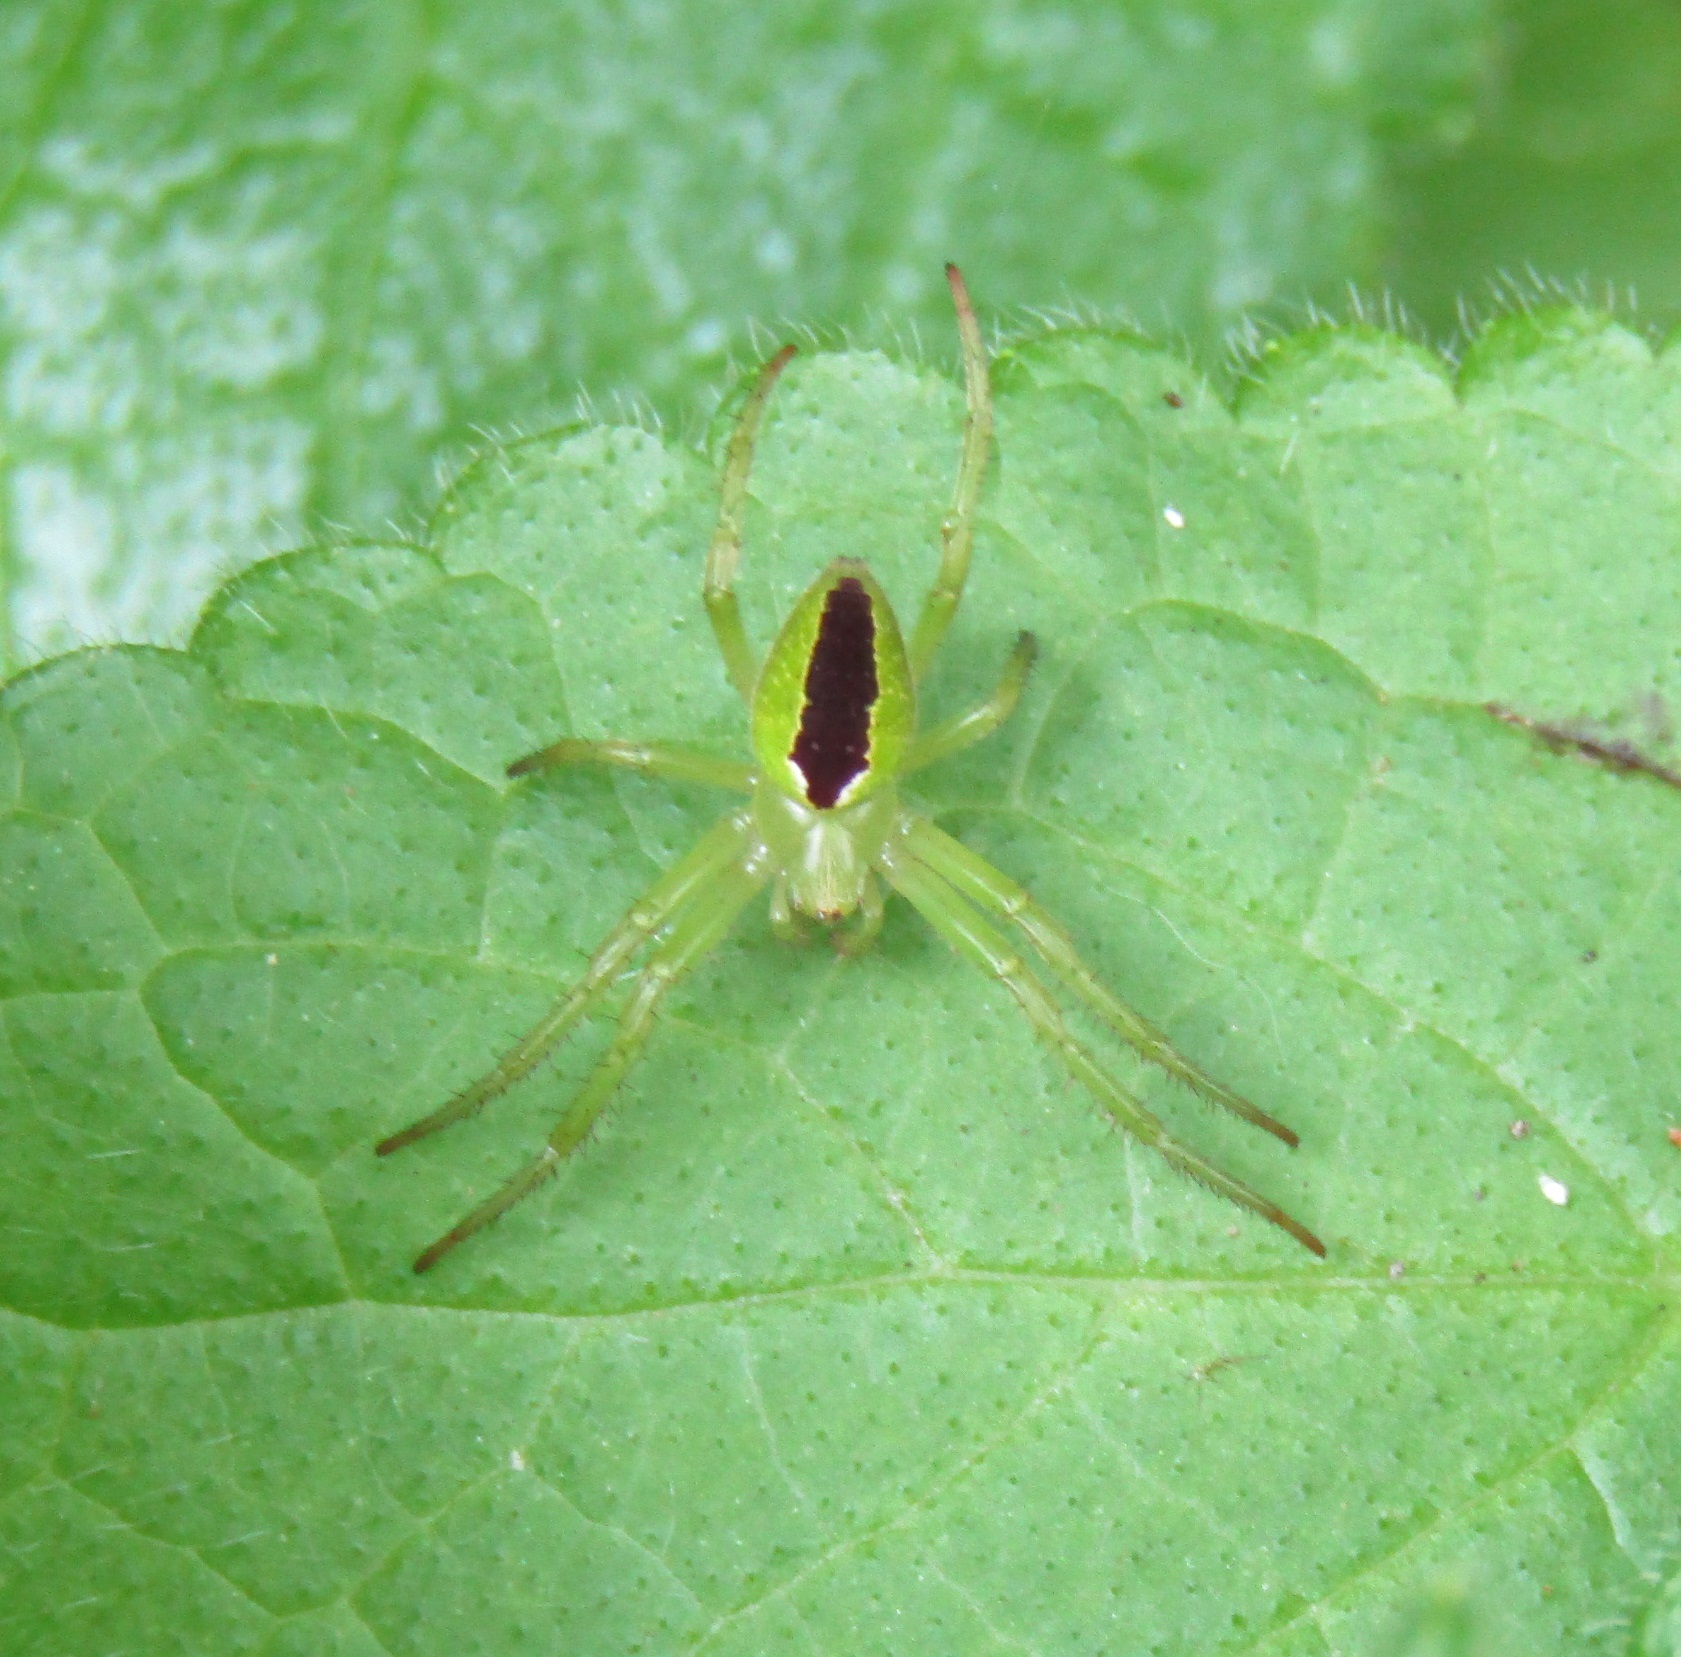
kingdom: Animalia
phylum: Arthropoda
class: Arachnida
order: Araneae
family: Araneidae
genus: Colaranea
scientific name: Colaranea melanoviridis
